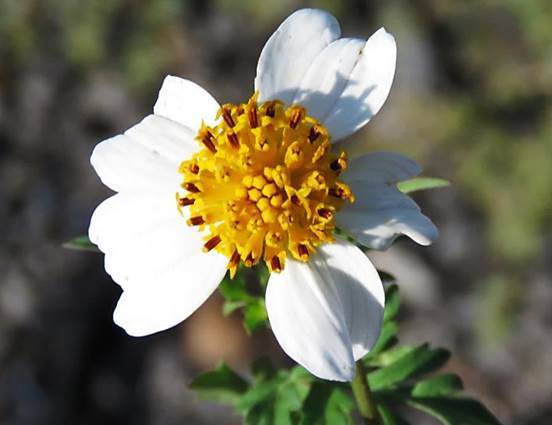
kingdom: Plantae
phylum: Tracheophyta
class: Magnoliopsida
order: Asterales
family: Asteraceae
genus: Bidens
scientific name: Bidens odorata
